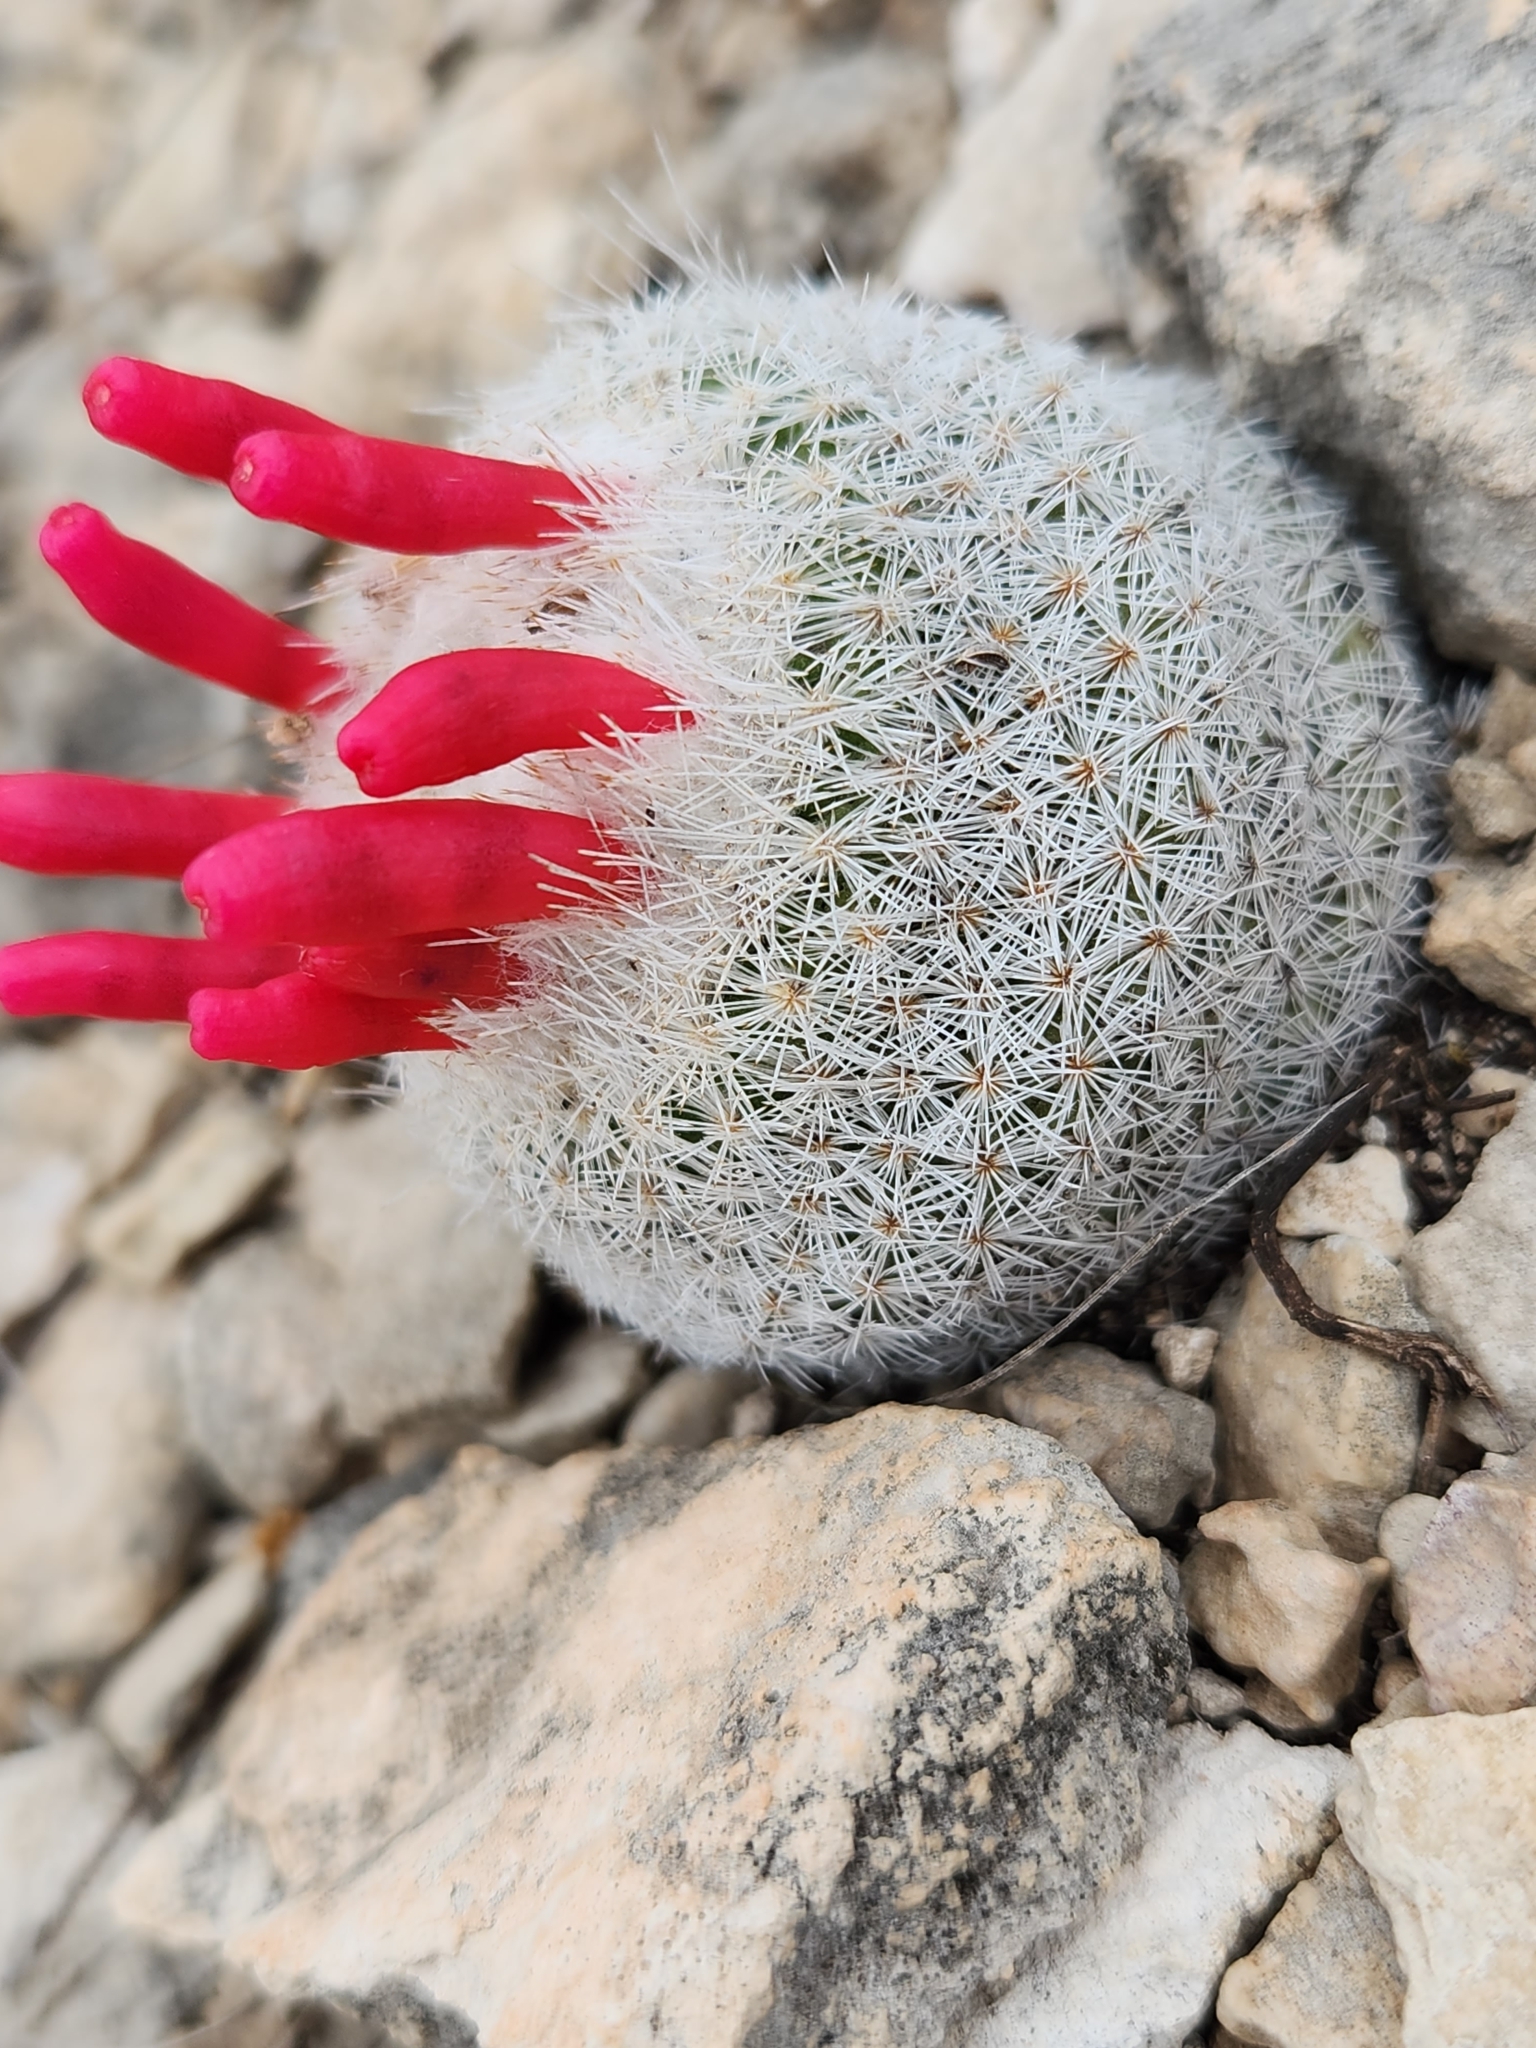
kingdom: Plantae
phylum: Tracheophyta
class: Magnoliopsida
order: Caryophyllales
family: Cactaceae
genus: Epithelantha
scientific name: Epithelantha micromeris
